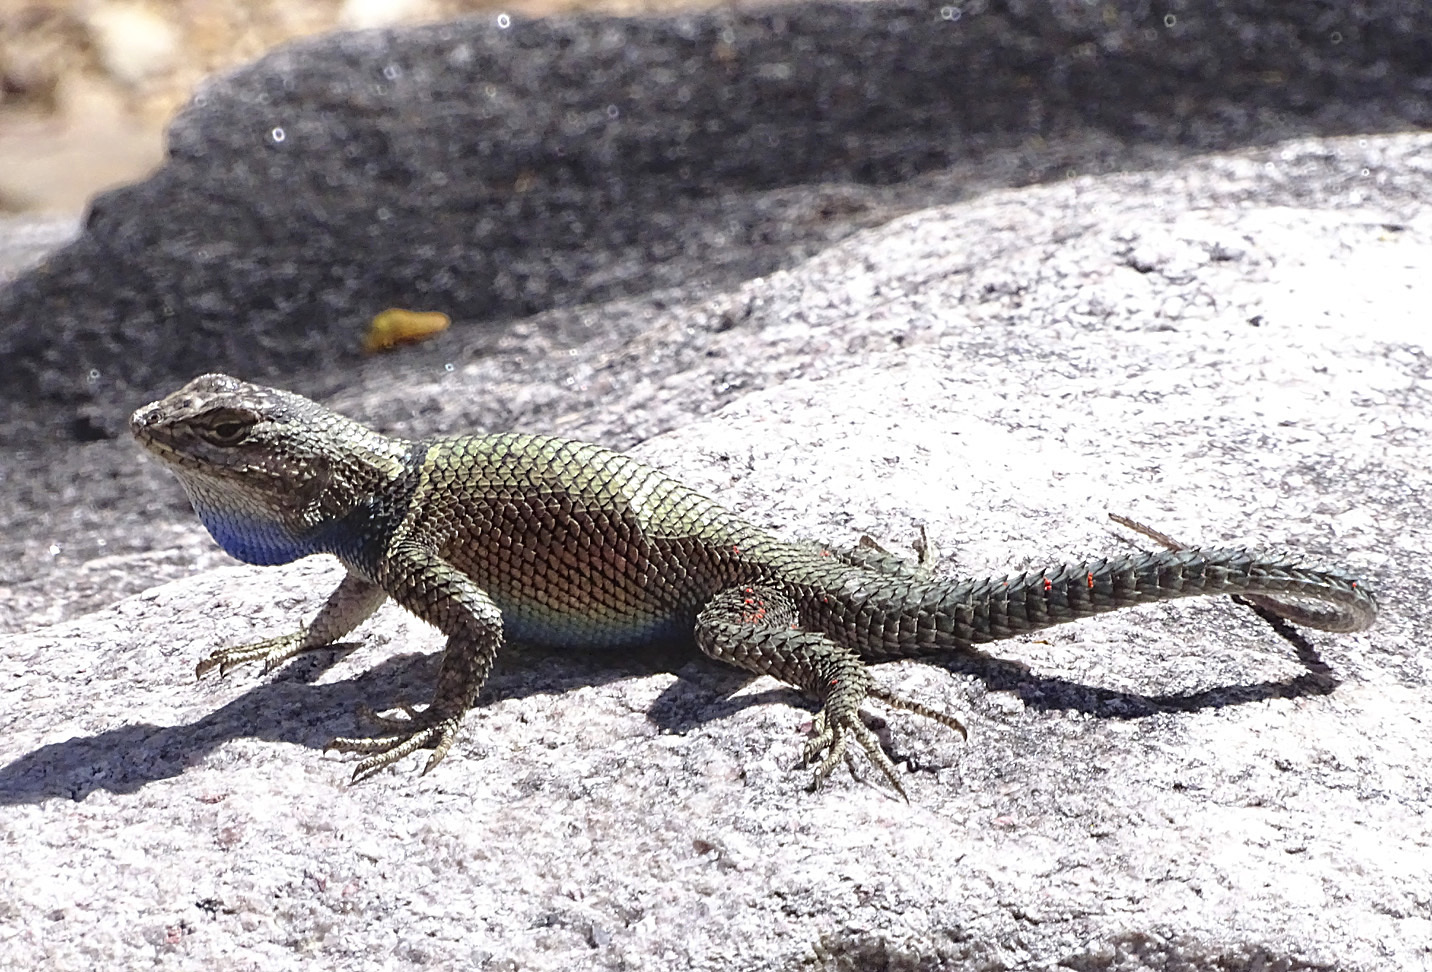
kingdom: Animalia
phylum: Chordata
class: Squamata
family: Phrynosomatidae
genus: Sceloporus
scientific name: Sceloporus jarrovii
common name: Yarrow's spiny lizard
